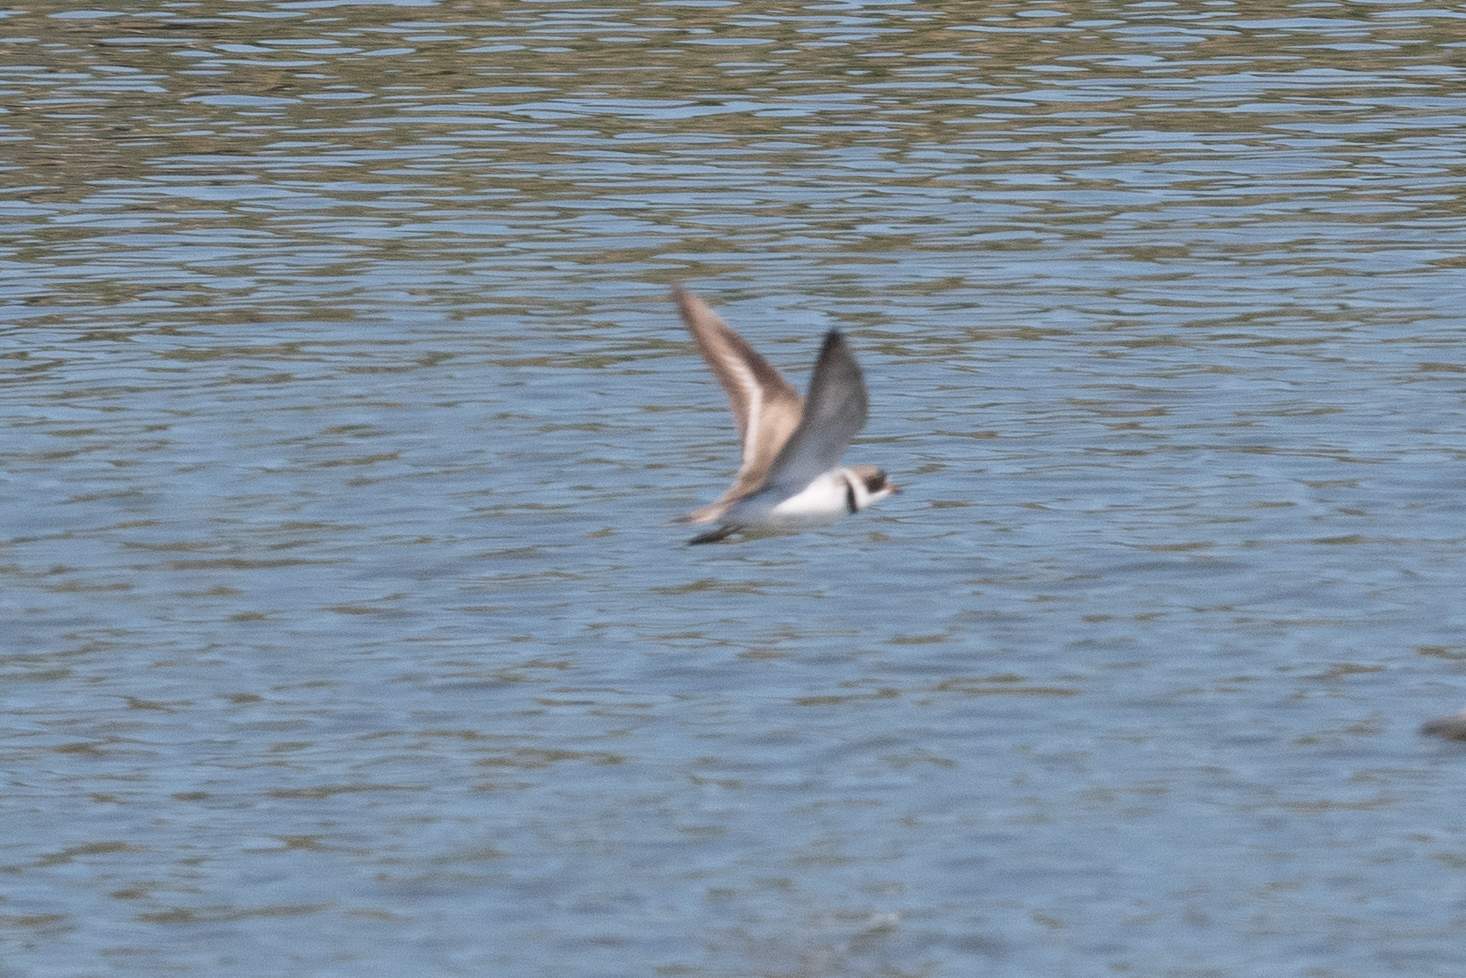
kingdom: Animalia
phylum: Chordata
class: Aves
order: Charadriiformes
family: Charadriidae
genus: Charadrius
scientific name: Charadrius semipalmatus
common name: Semipalmated plover
